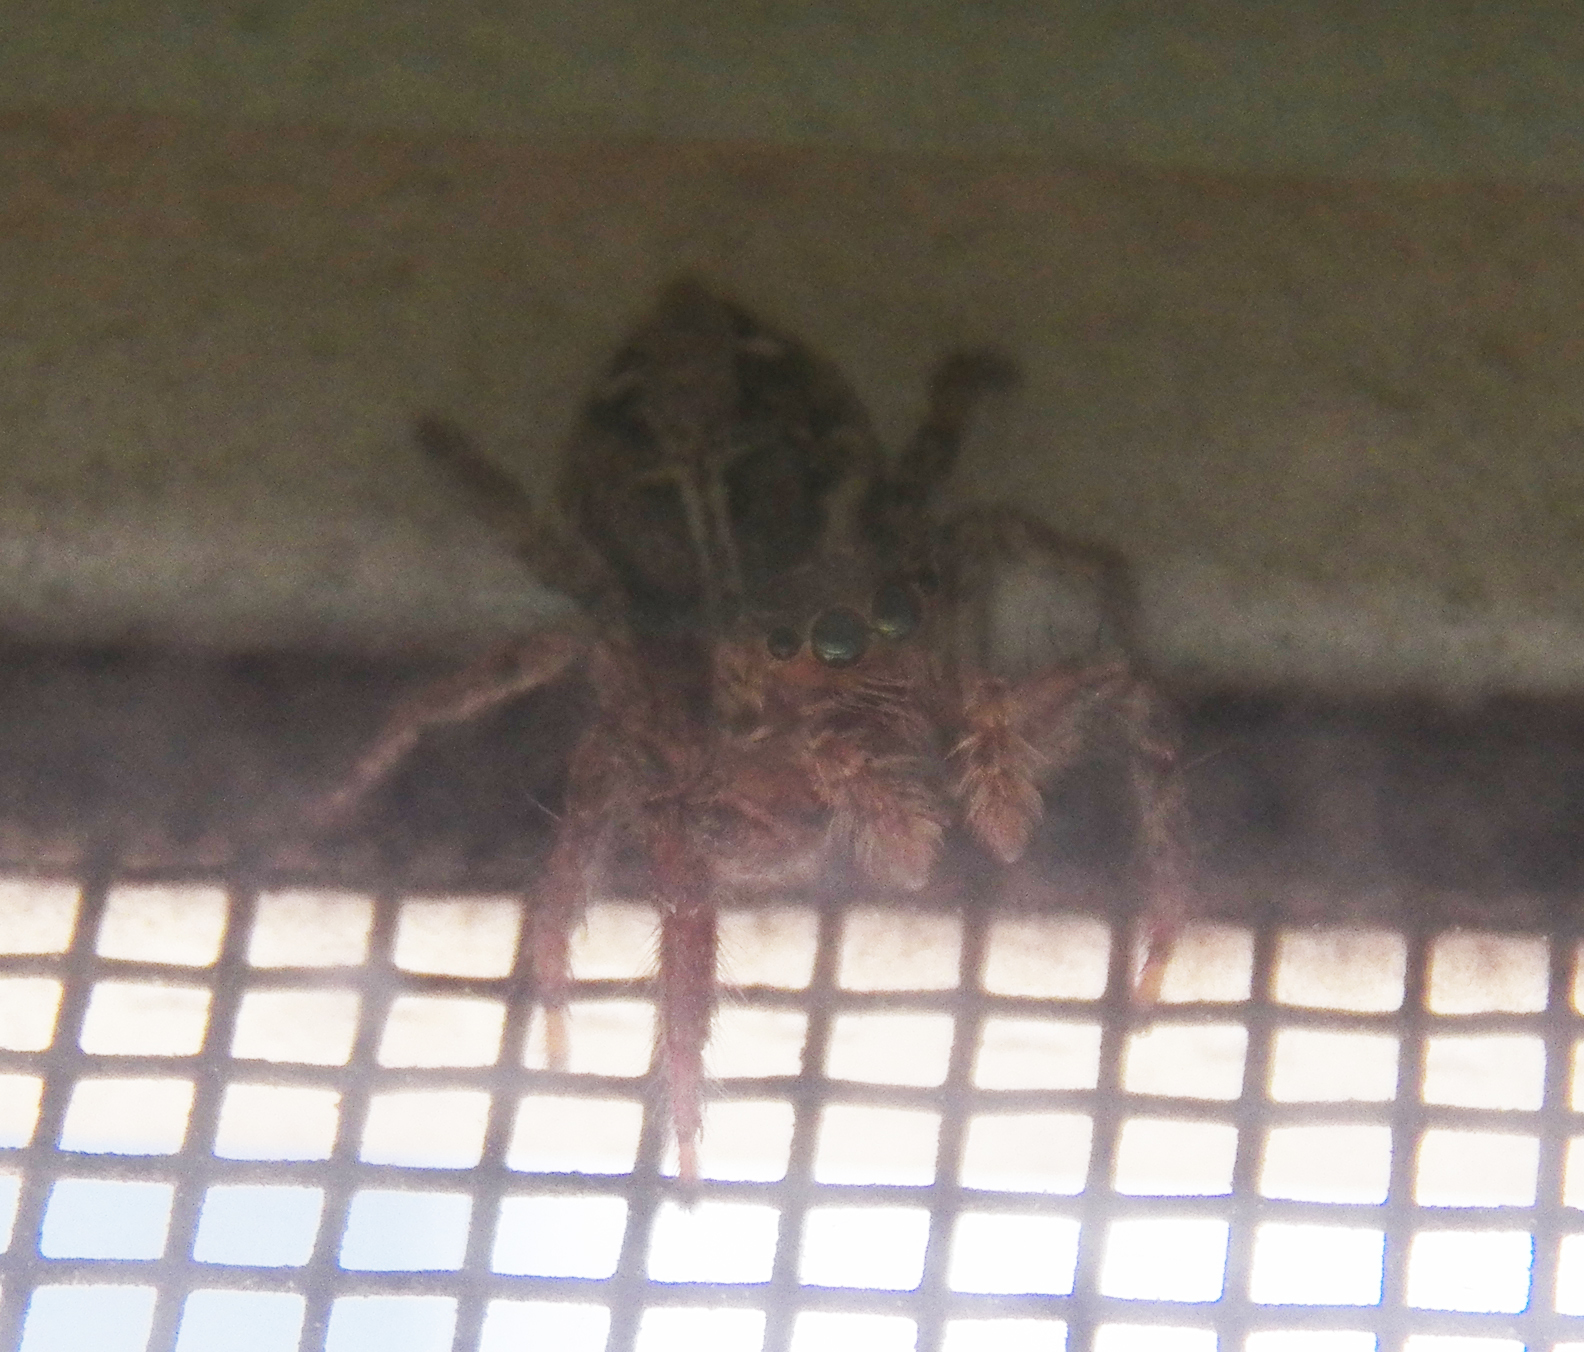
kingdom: Animalia
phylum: Arthropoda
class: Arachnida
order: Araneae
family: Salticidae
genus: Plexippus
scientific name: Plexippus paykulli
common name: Pantropical jumper
